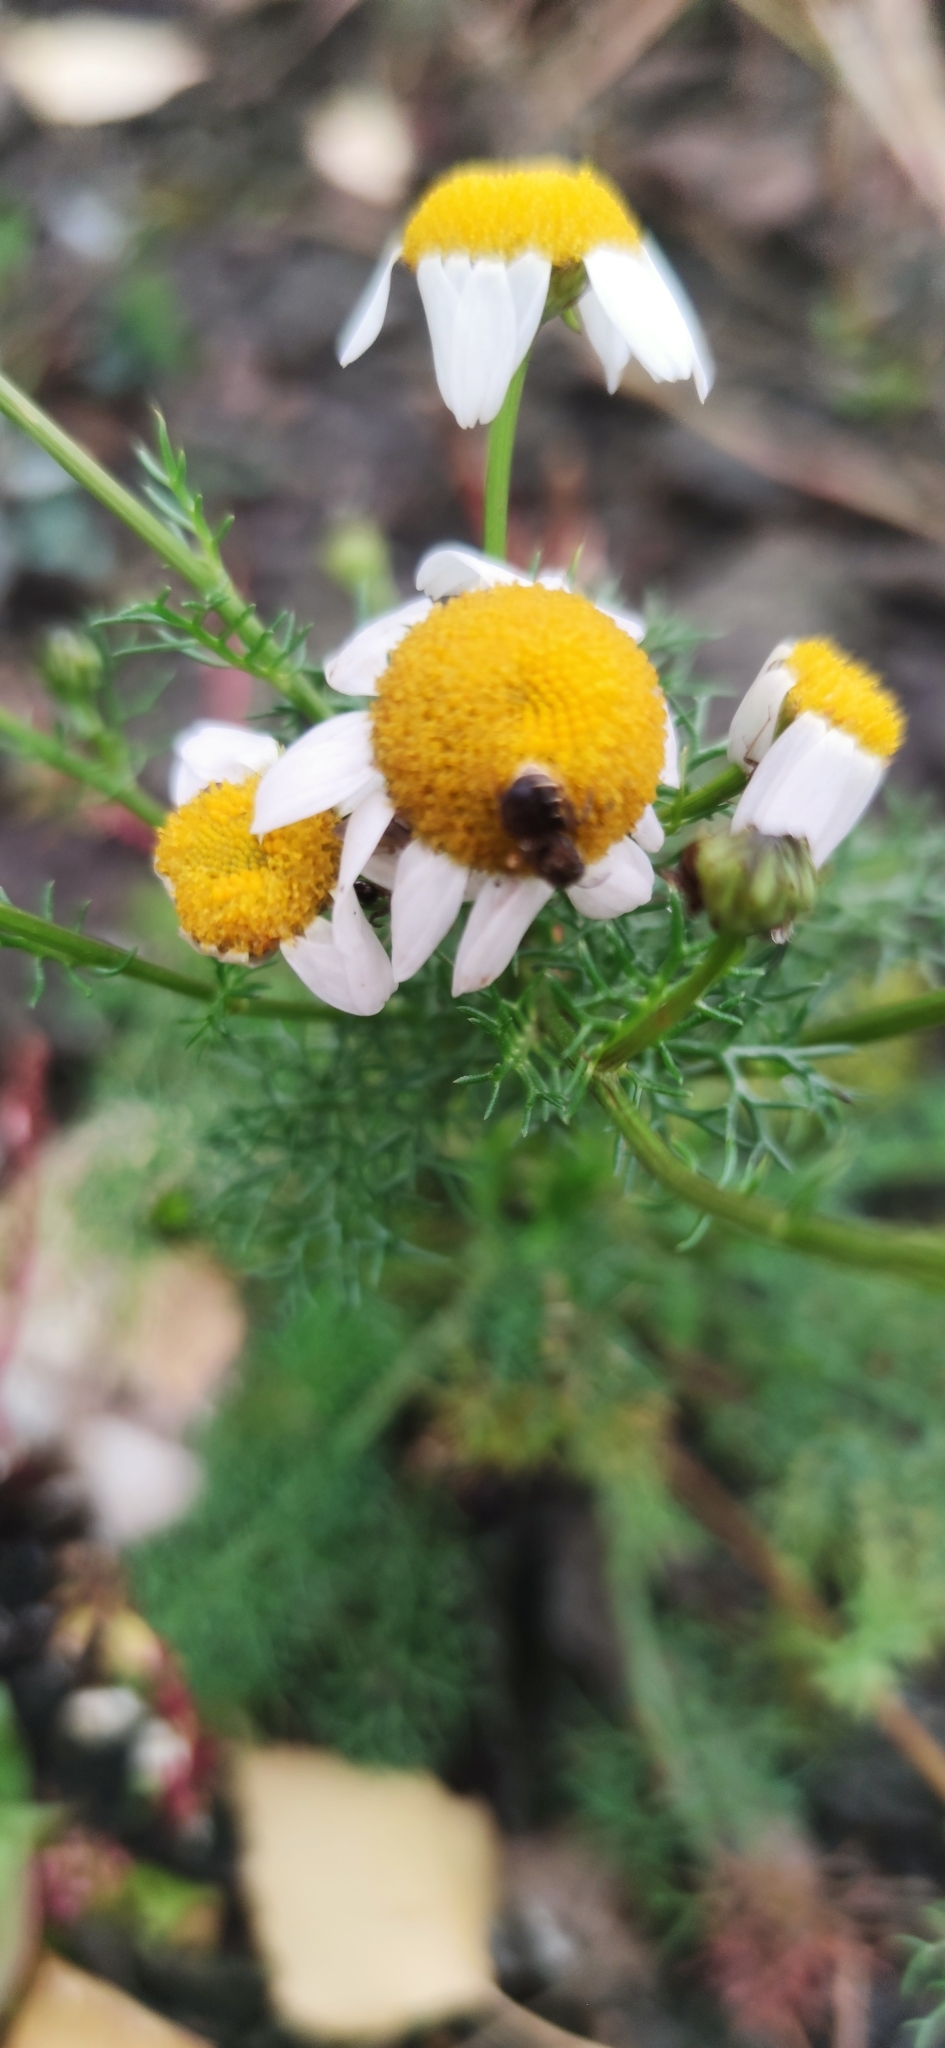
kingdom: Plantae
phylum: Tracheophyta
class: Magnoliopsida
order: Asterales
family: Asteraceae
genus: Matricaria
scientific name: Matricaria chamomilla
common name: Scented mayweed
